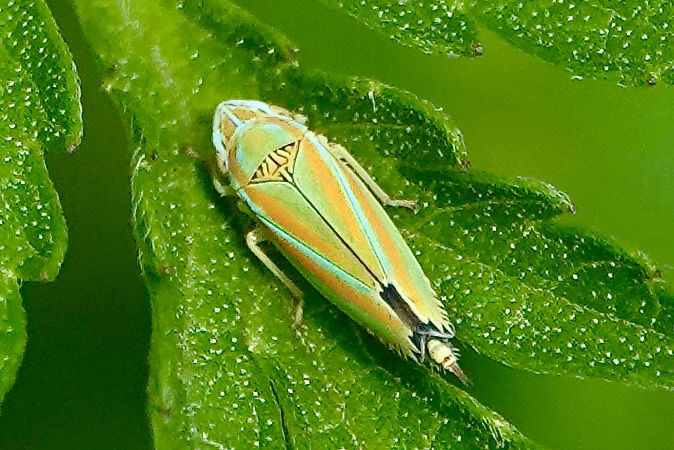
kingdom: Animalia
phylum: Arthropoda
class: Insecta
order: Hemiptera
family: Cicadellidae
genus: Graphocephala
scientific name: Graphocephala versuta
